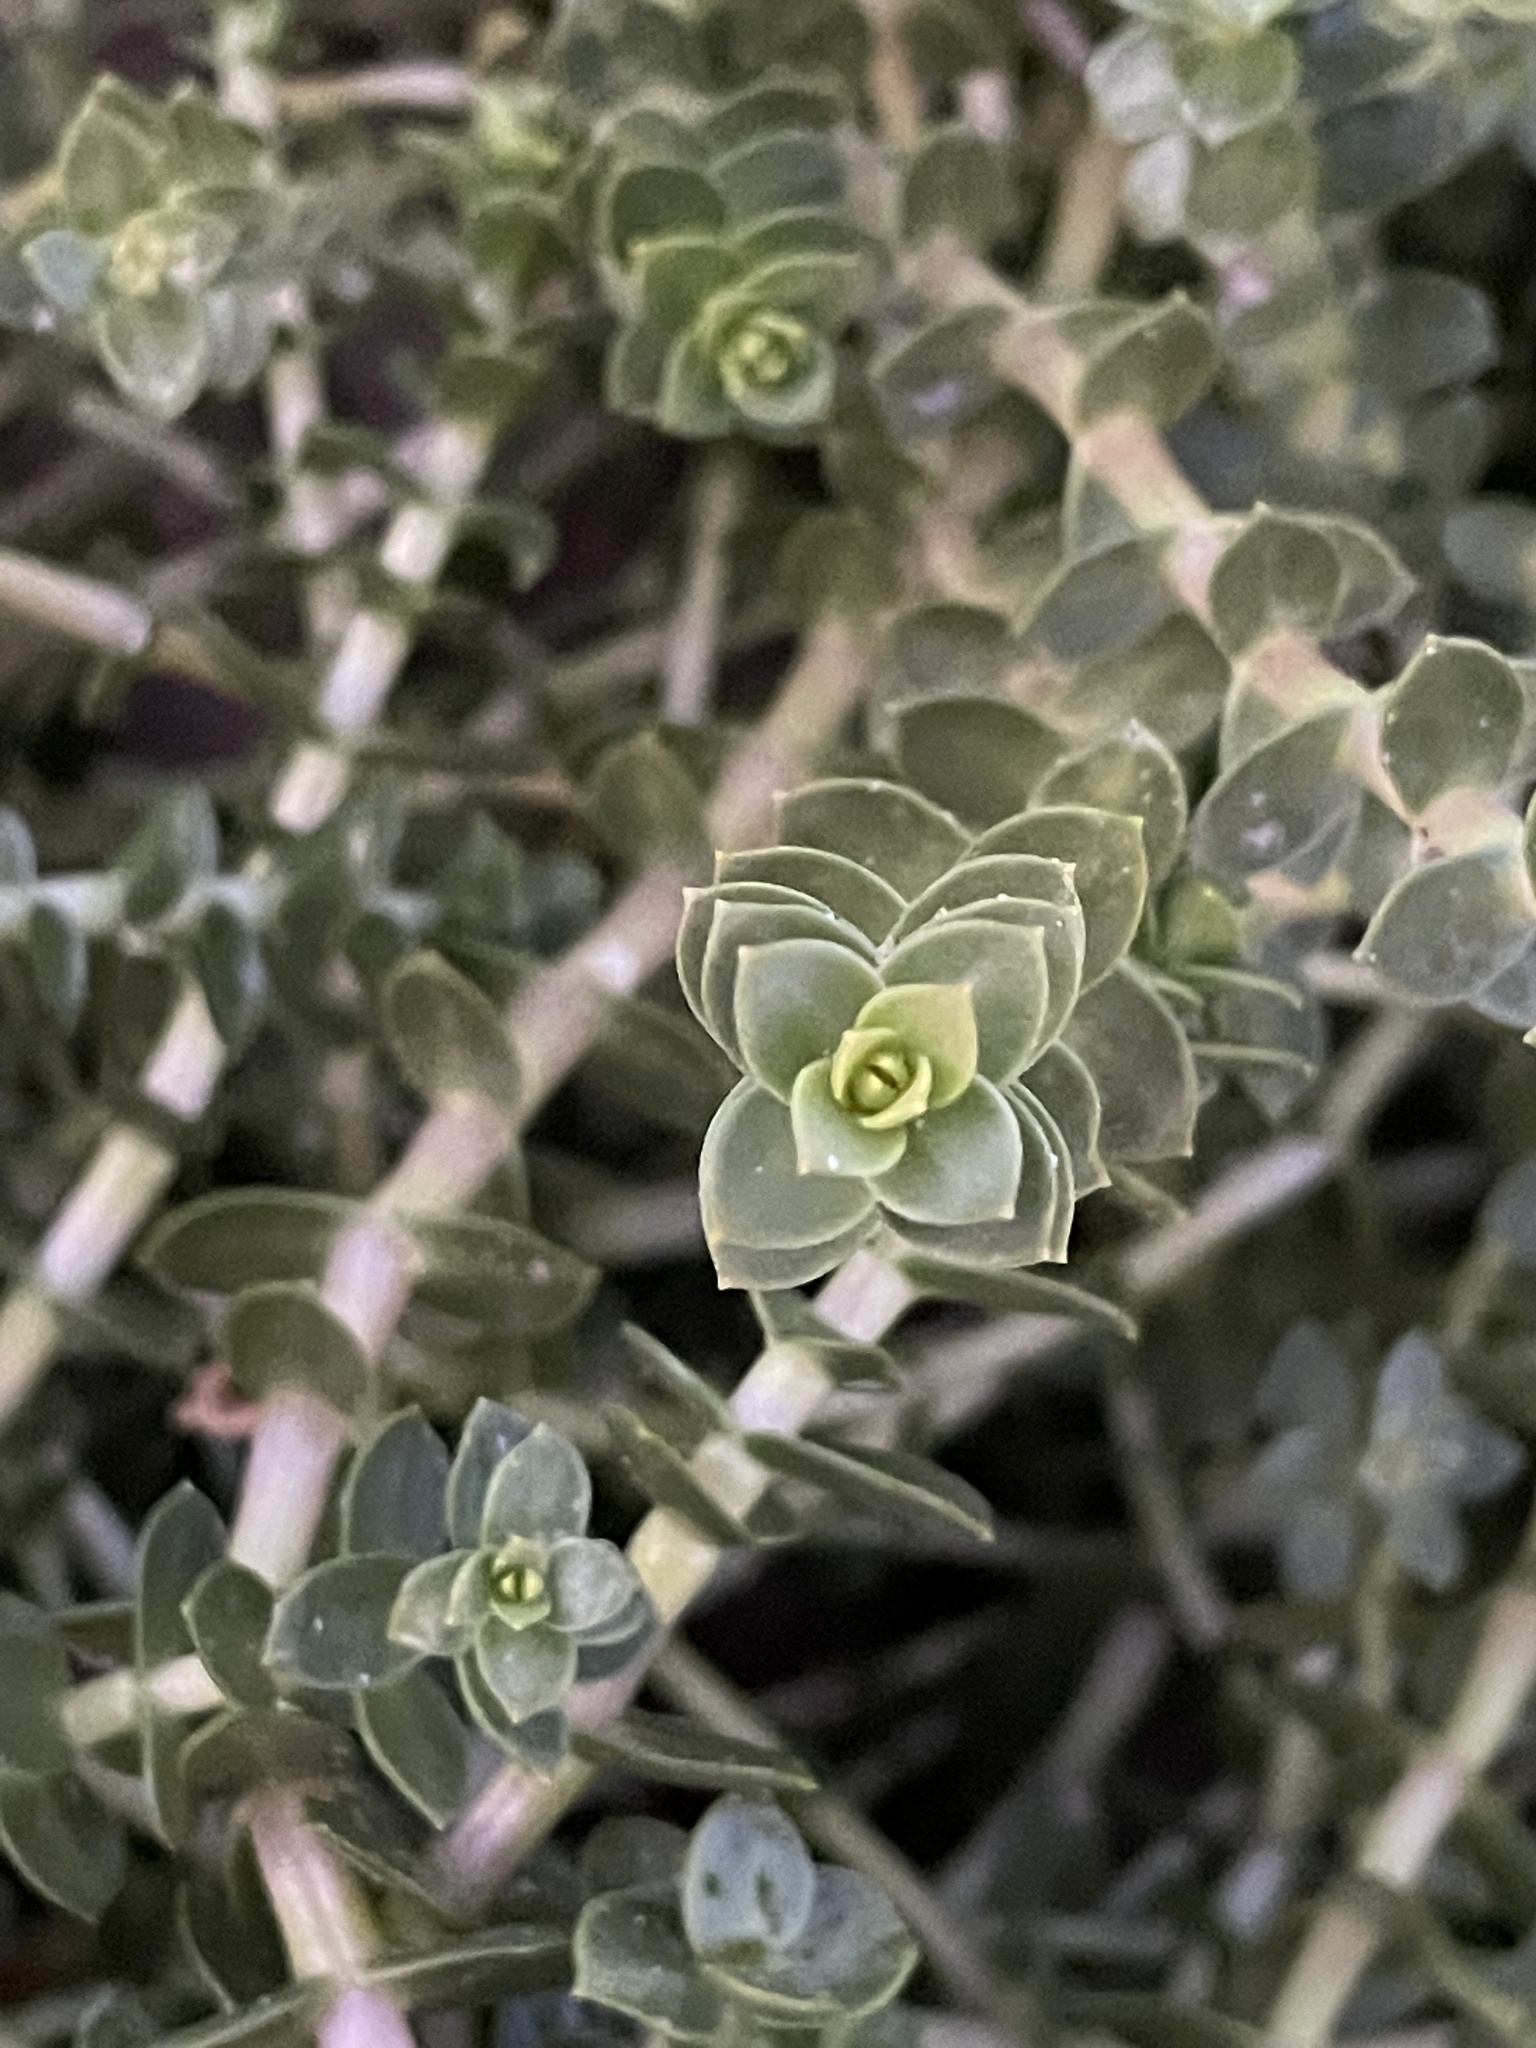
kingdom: Plantae
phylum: Tracheophyta
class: Magnoliopsida
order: Caryophyllales
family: Caryophyllaceae
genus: Honckenya
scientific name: Honckenya peploides
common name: Sea sandwort
